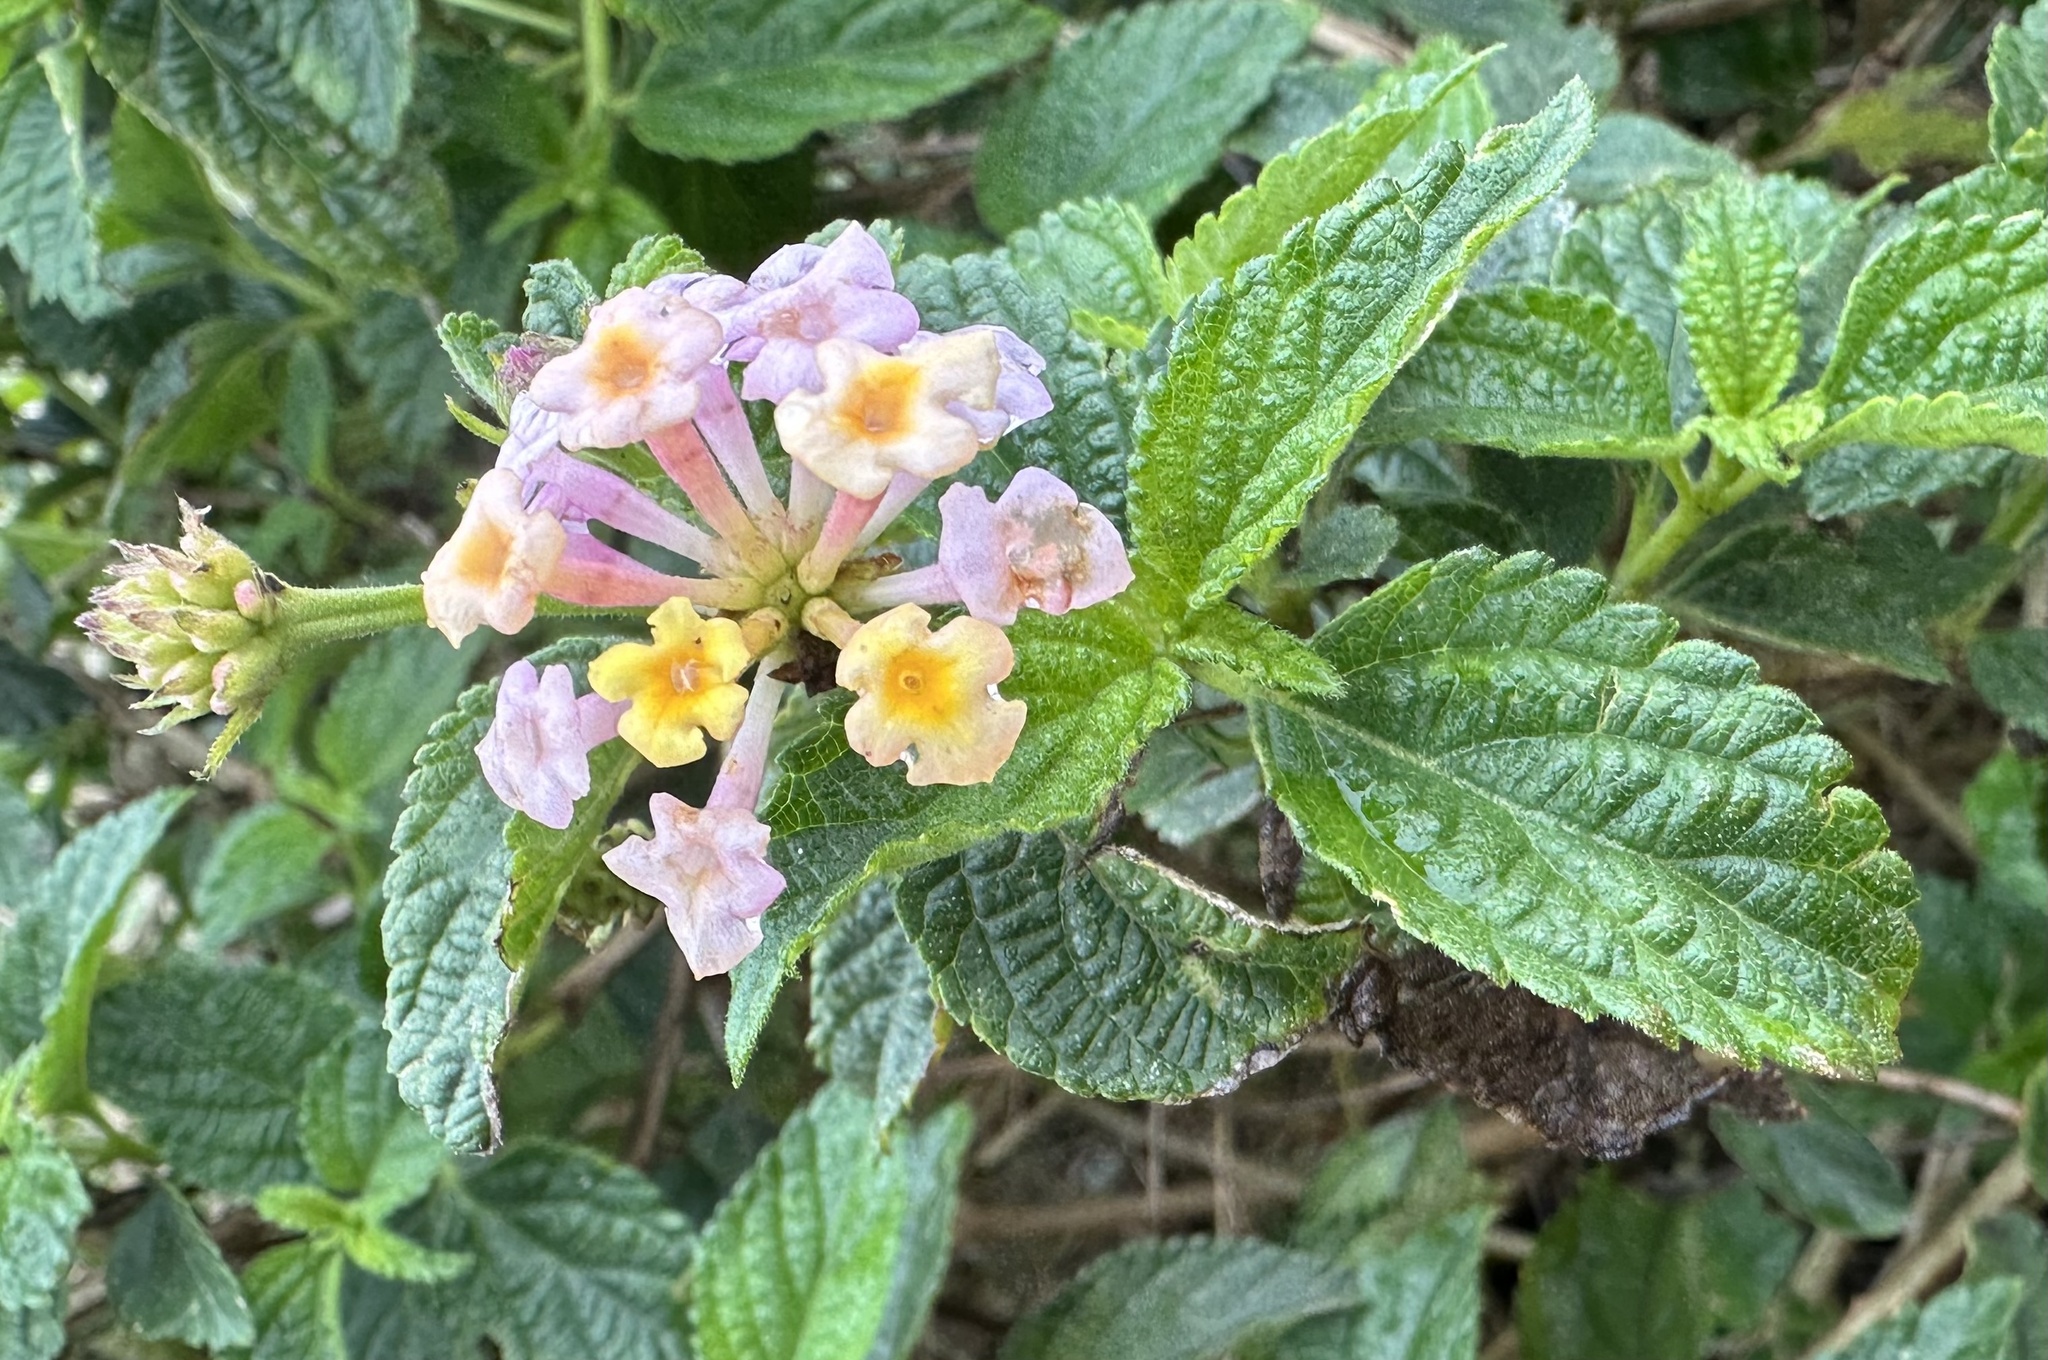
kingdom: Plantae
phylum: Tracheophyta
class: Magnoliopsida
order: Lamiales
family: Verbenaceae
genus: Lantana
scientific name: Lantana camara
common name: Lantana
